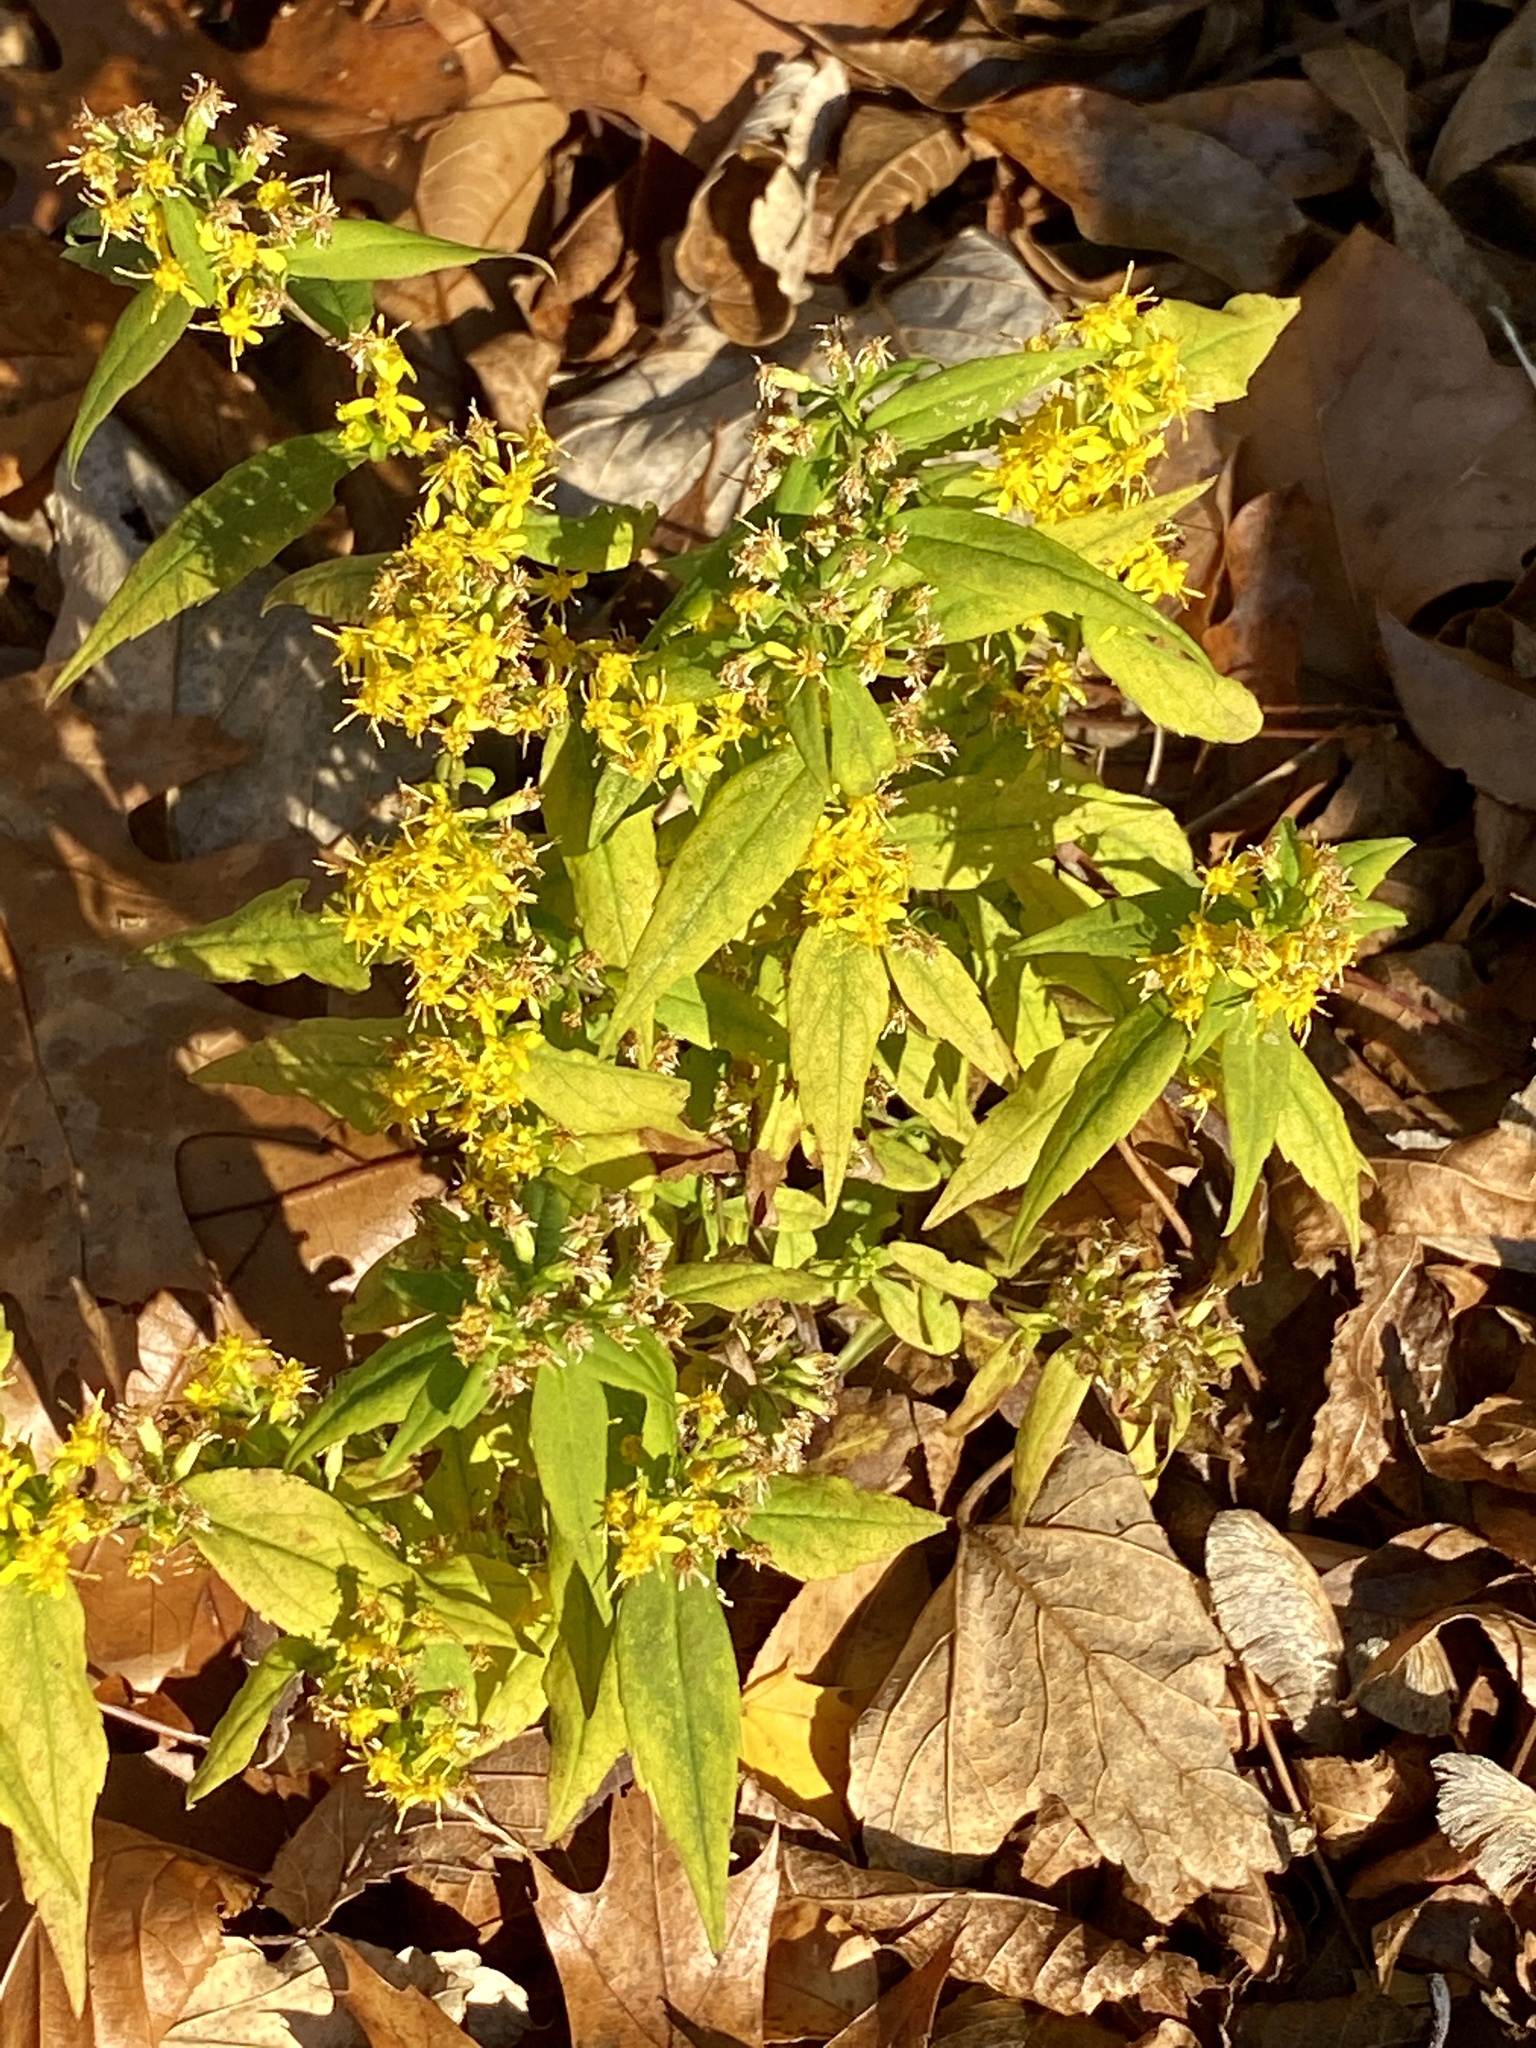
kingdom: Plantae
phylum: Tracheophyta
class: Magnoliopsida
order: Asterales
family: Asteraceae
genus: Solidago
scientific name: Solidago caesia
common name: Woodland goldenrod
